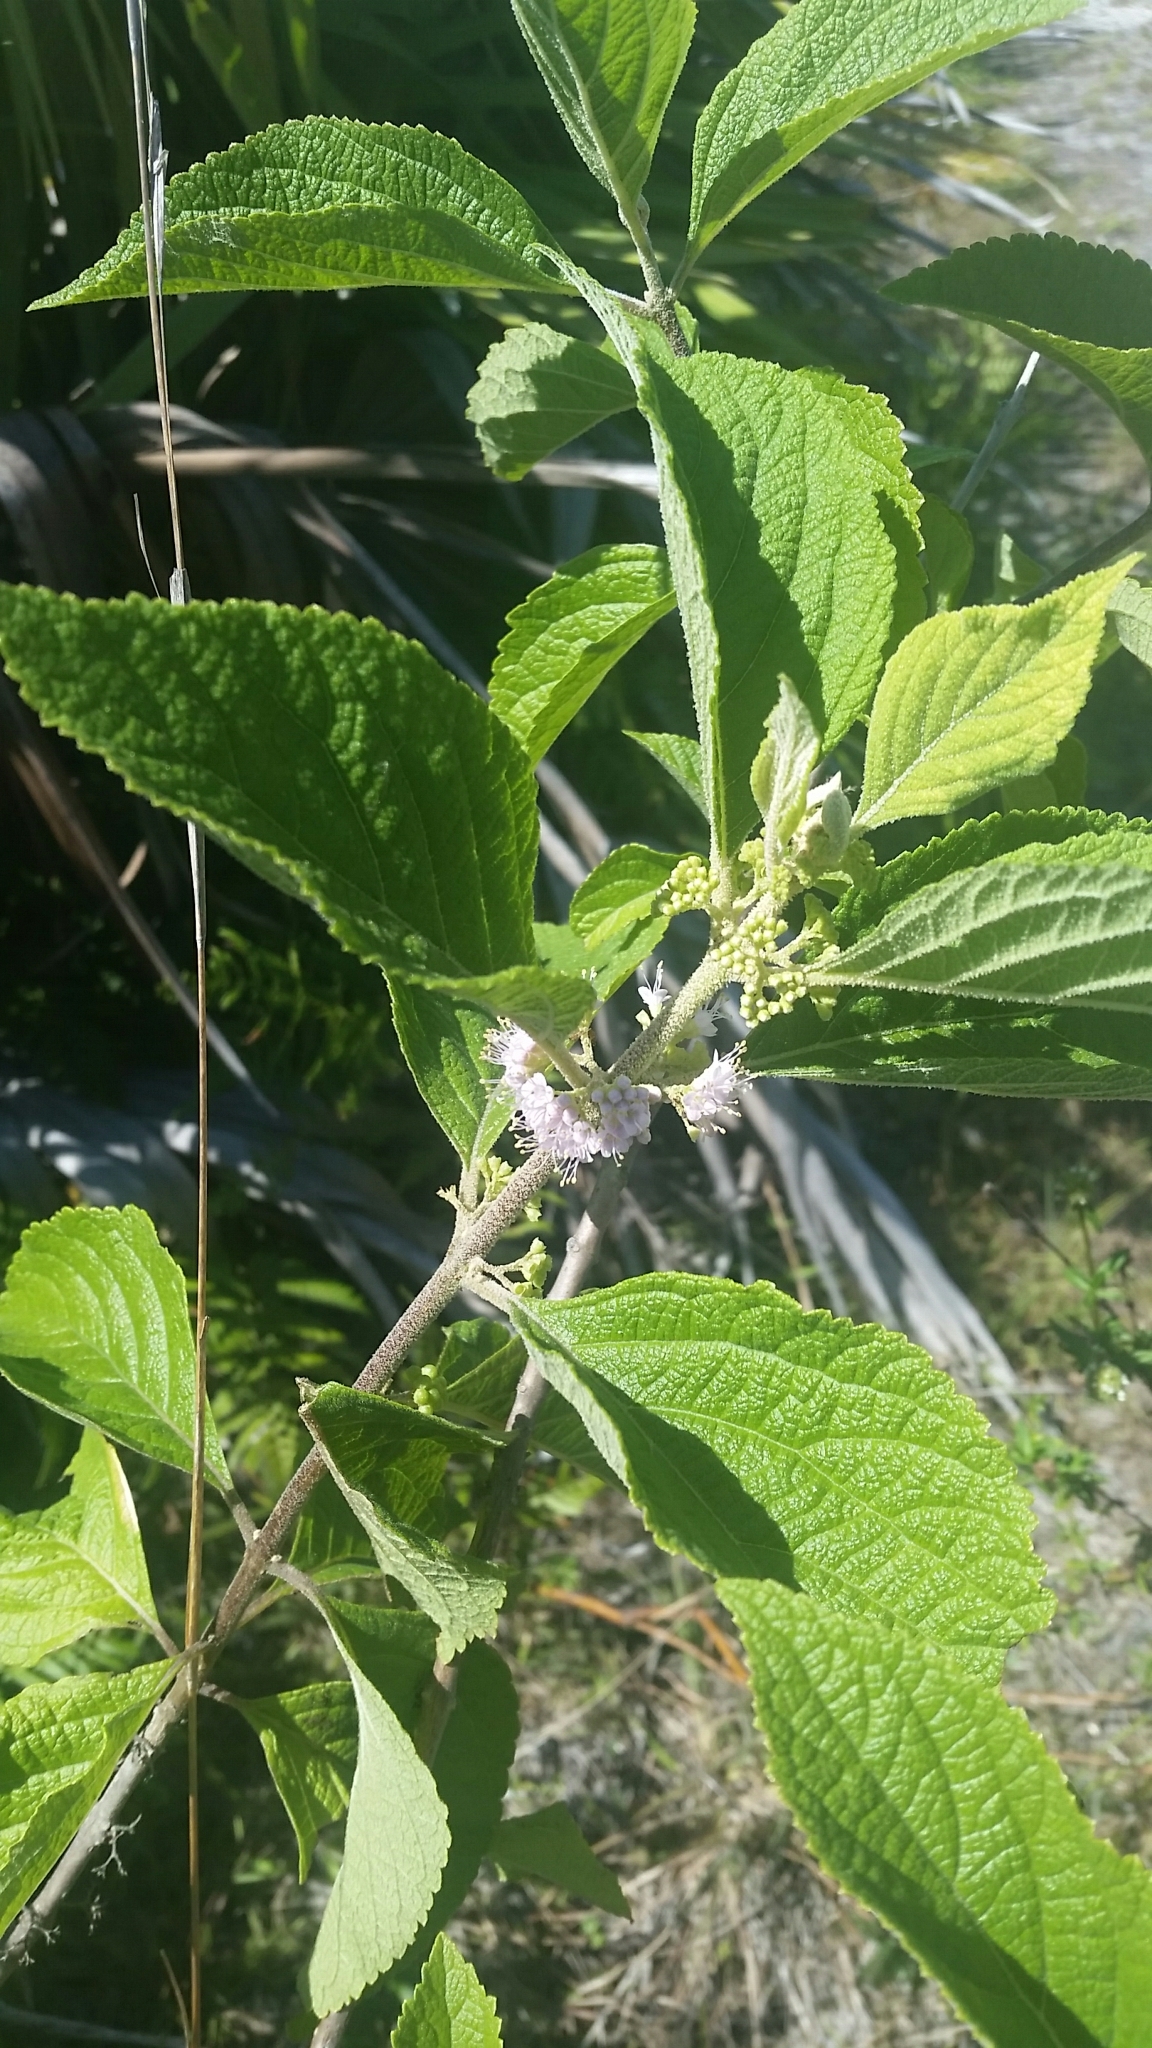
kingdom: Plantae
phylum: Tracheophyta
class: Magnoliopsida
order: Lamiales
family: Lamiaceae
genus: Callicarpa
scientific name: Callicarpa americana
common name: American beautyberry
